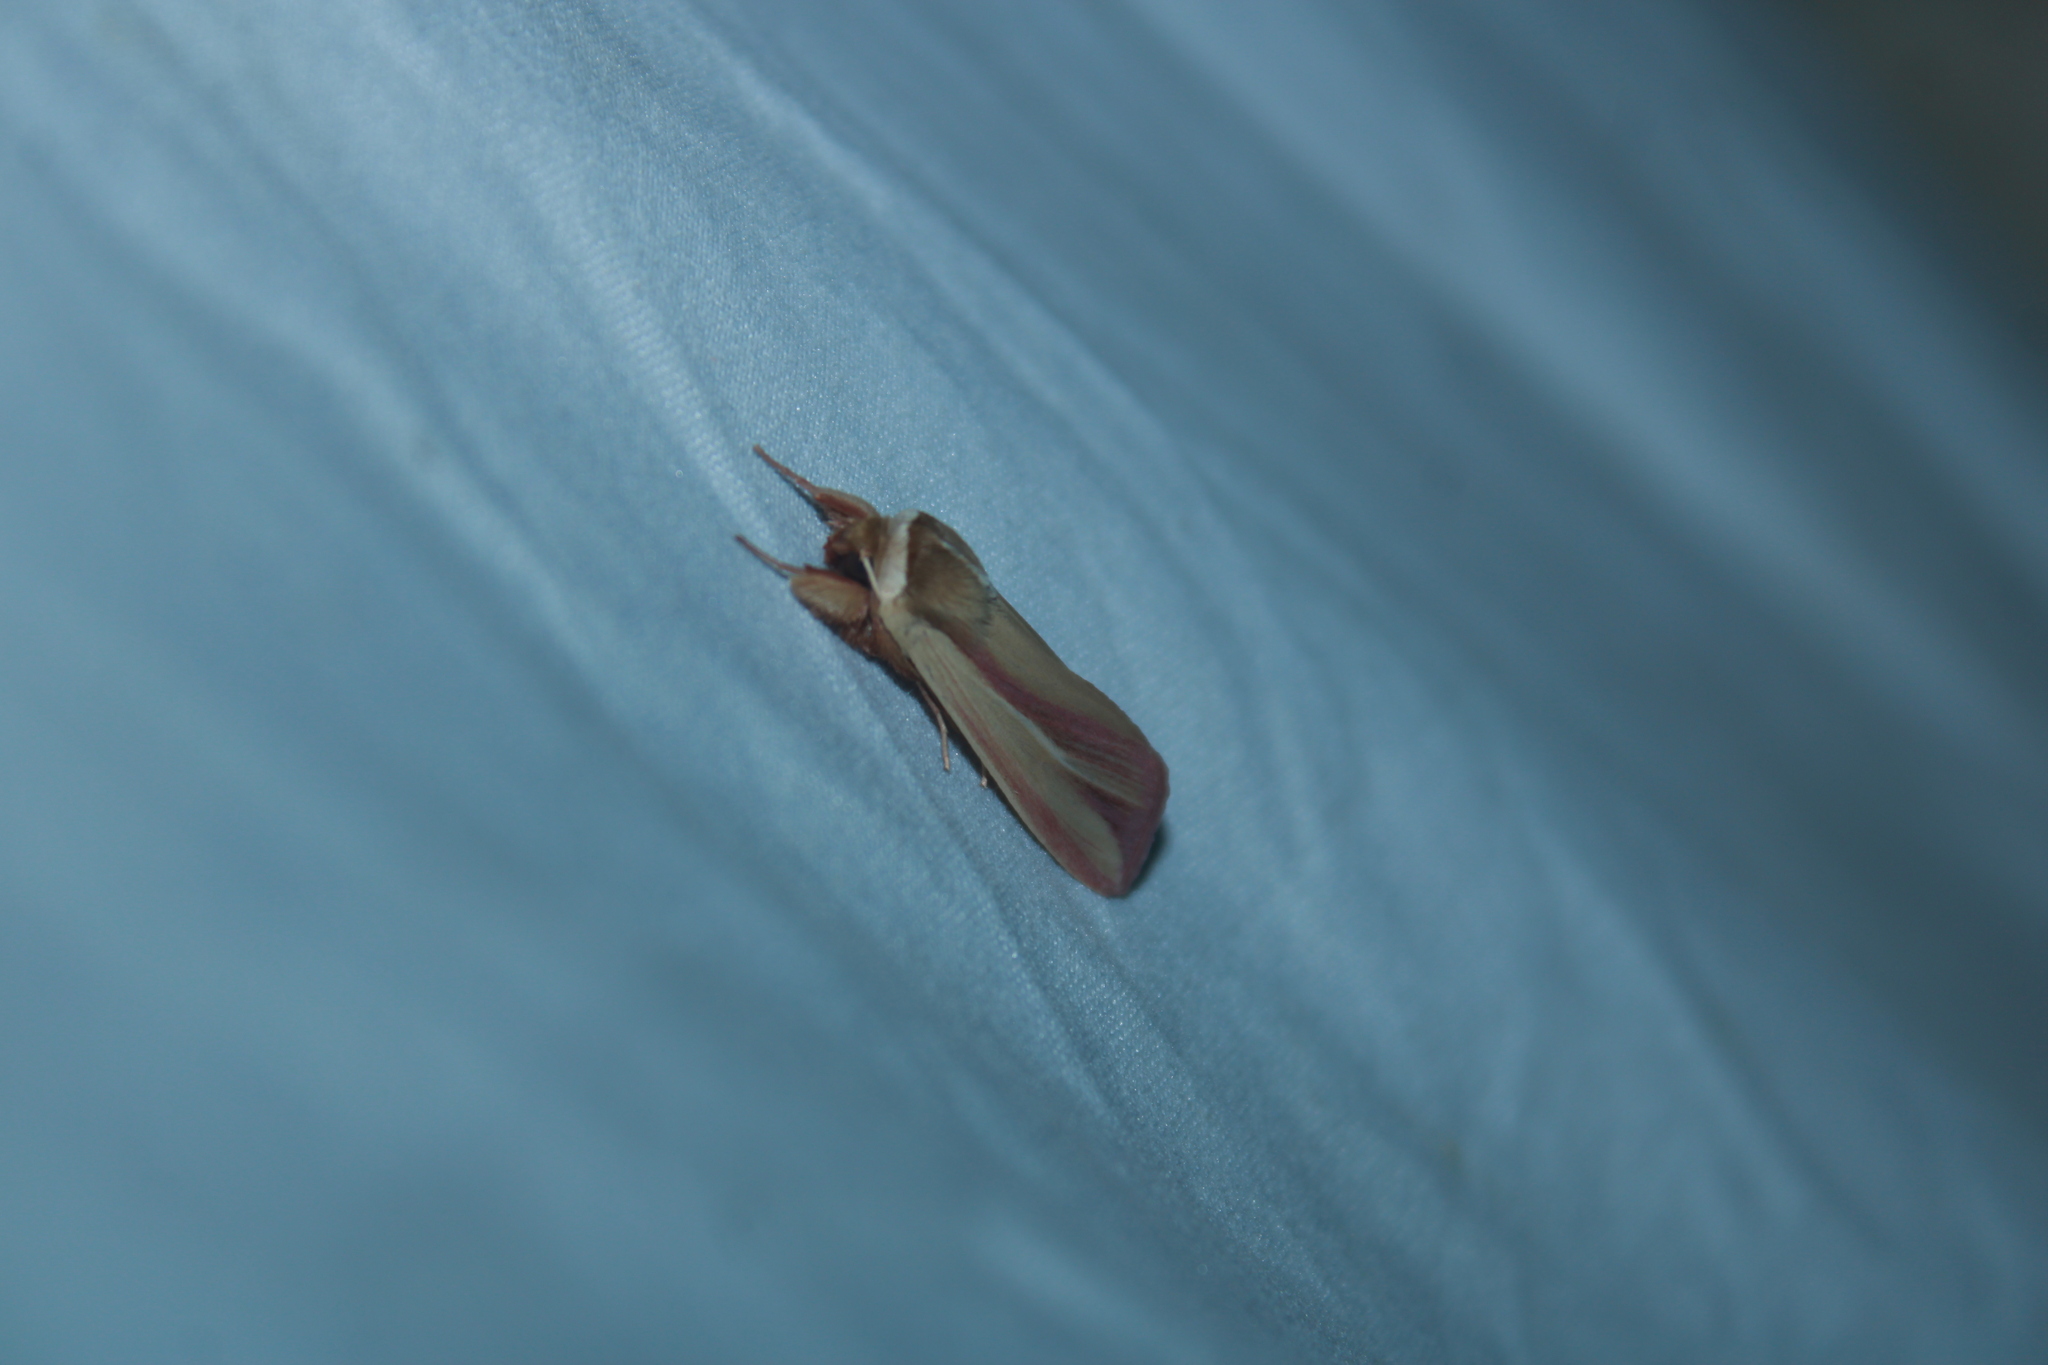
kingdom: Animalia
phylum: Arthropoda
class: Insecta
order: Lepidoptera
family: Noctuidae
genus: Dargida
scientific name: Dargida rubripennis
